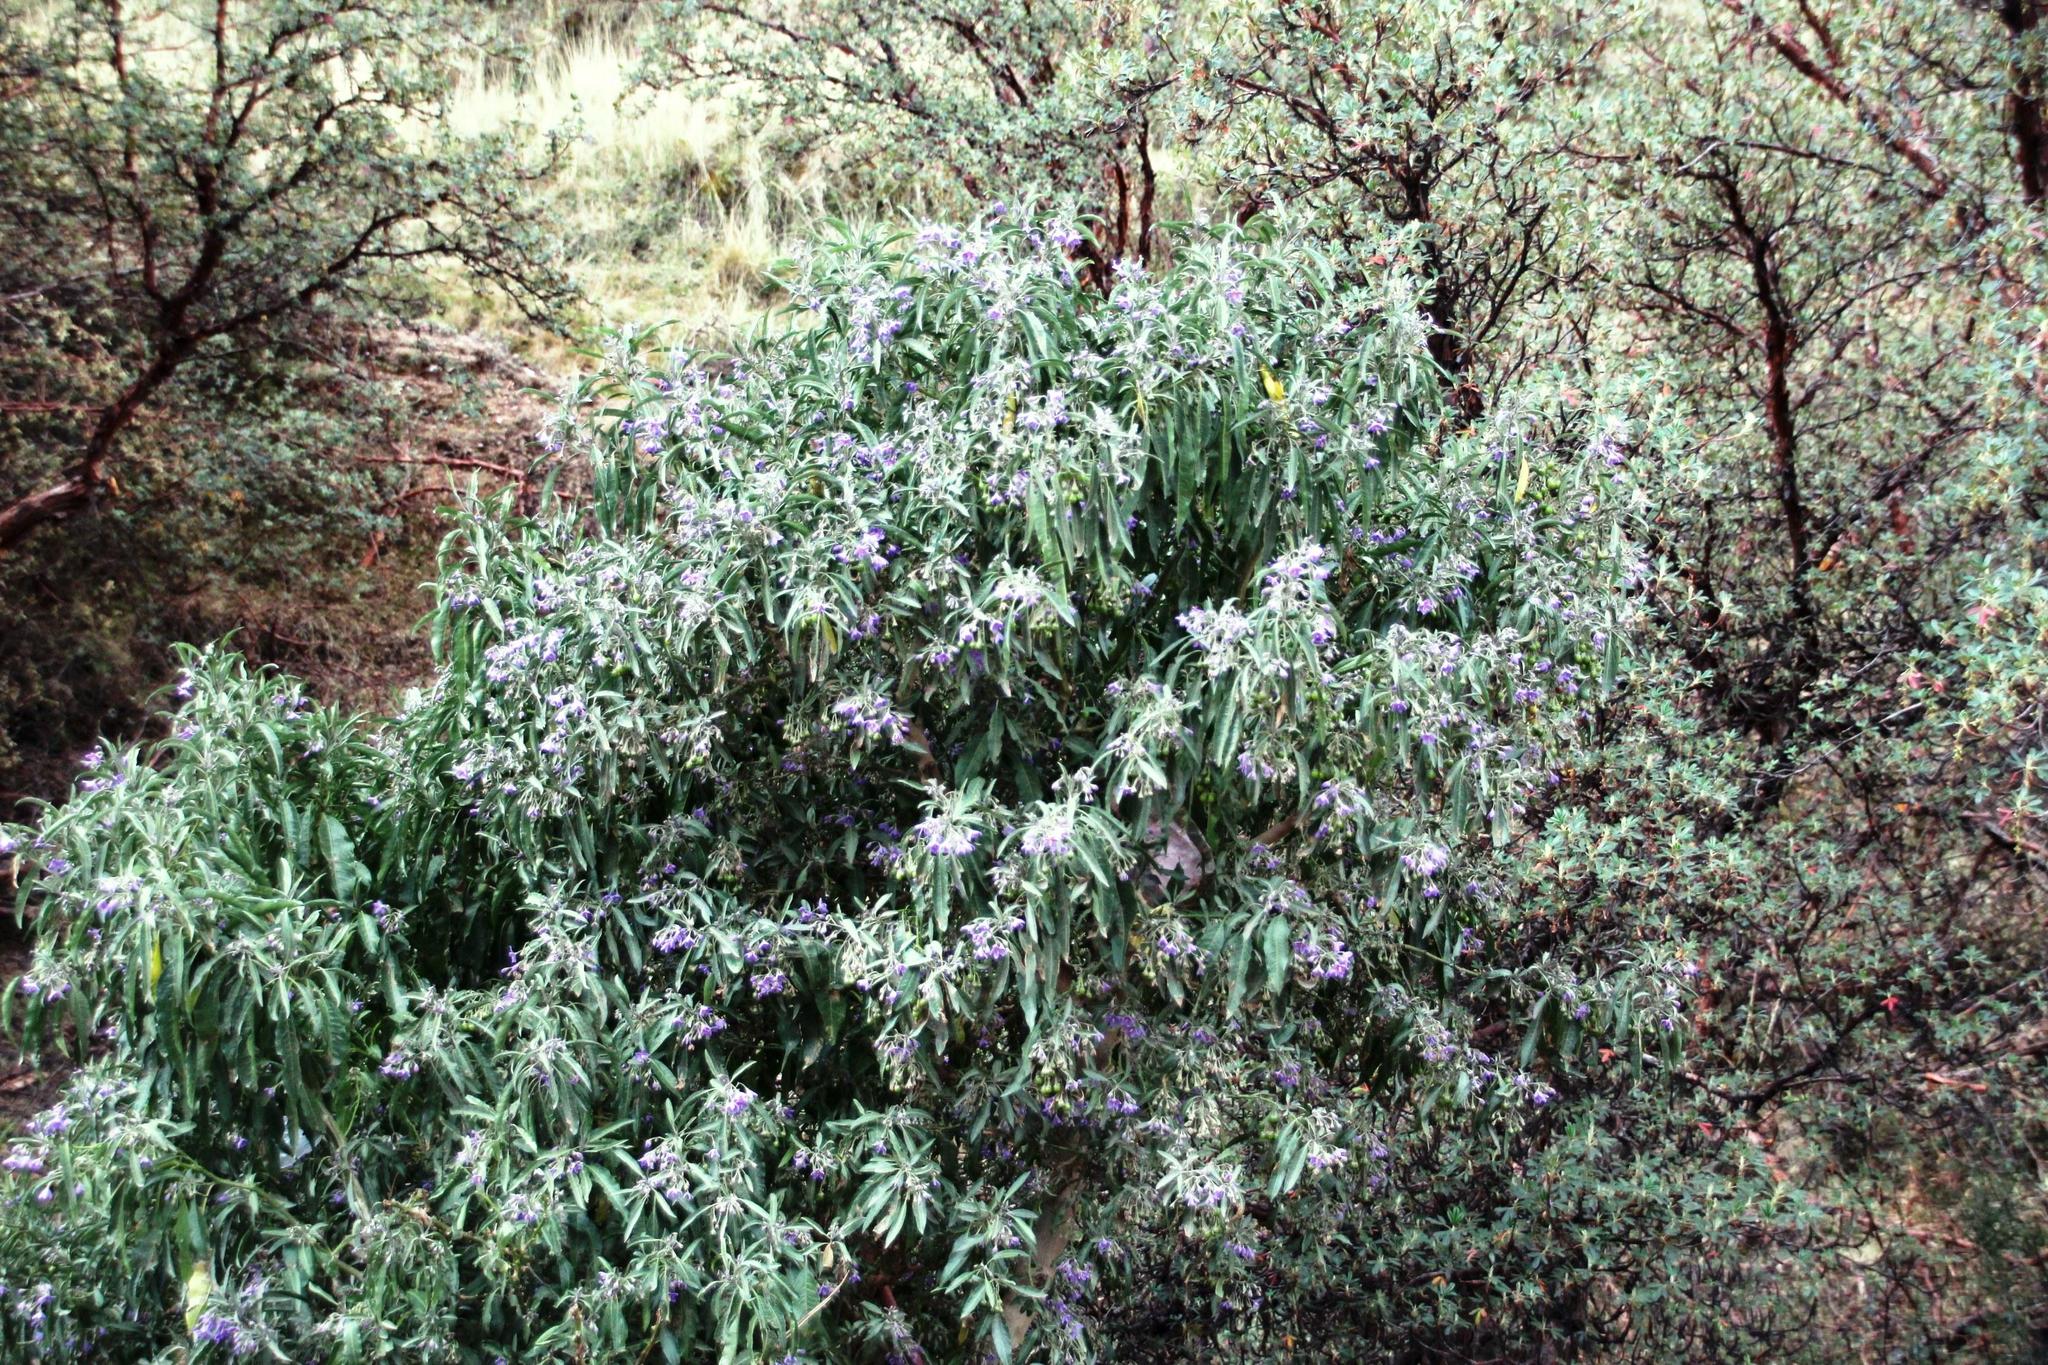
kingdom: Plantae
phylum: Tracheophyta
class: Magnoliopsida
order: Solanales
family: Solanaceae
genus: Solanum
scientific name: Solanum nitidum
